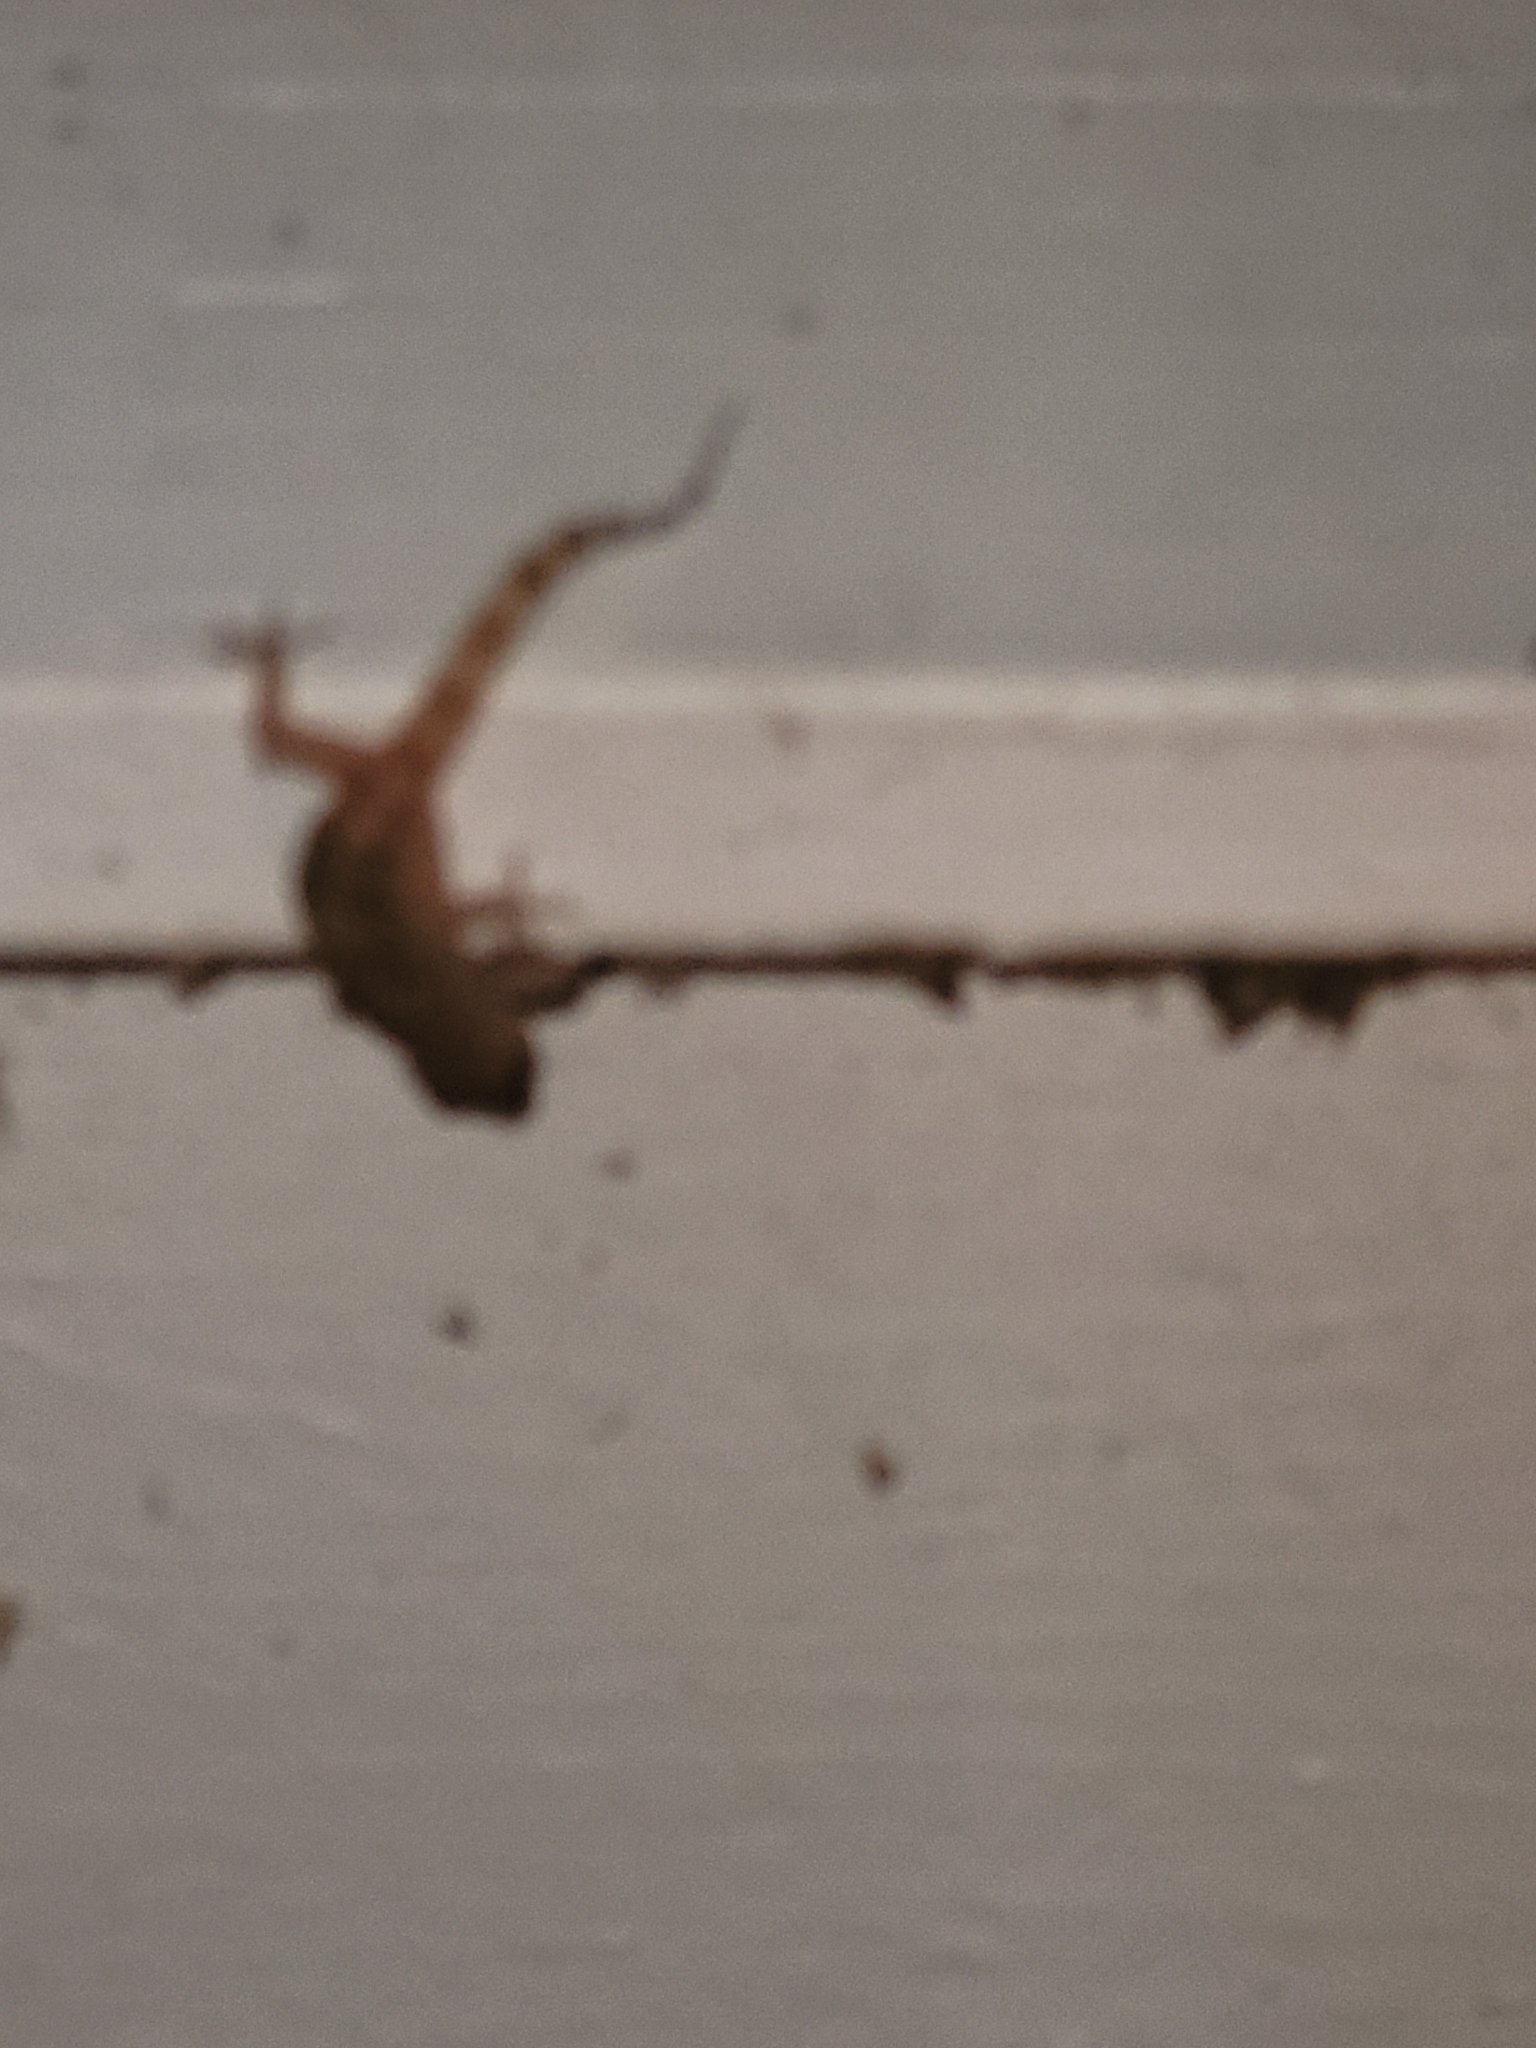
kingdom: Animalia
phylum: Chordata
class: Squamata
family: Gekkonidae
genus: Hemidactylus
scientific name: Hemidactylus turcicus
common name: Turkish gecko
